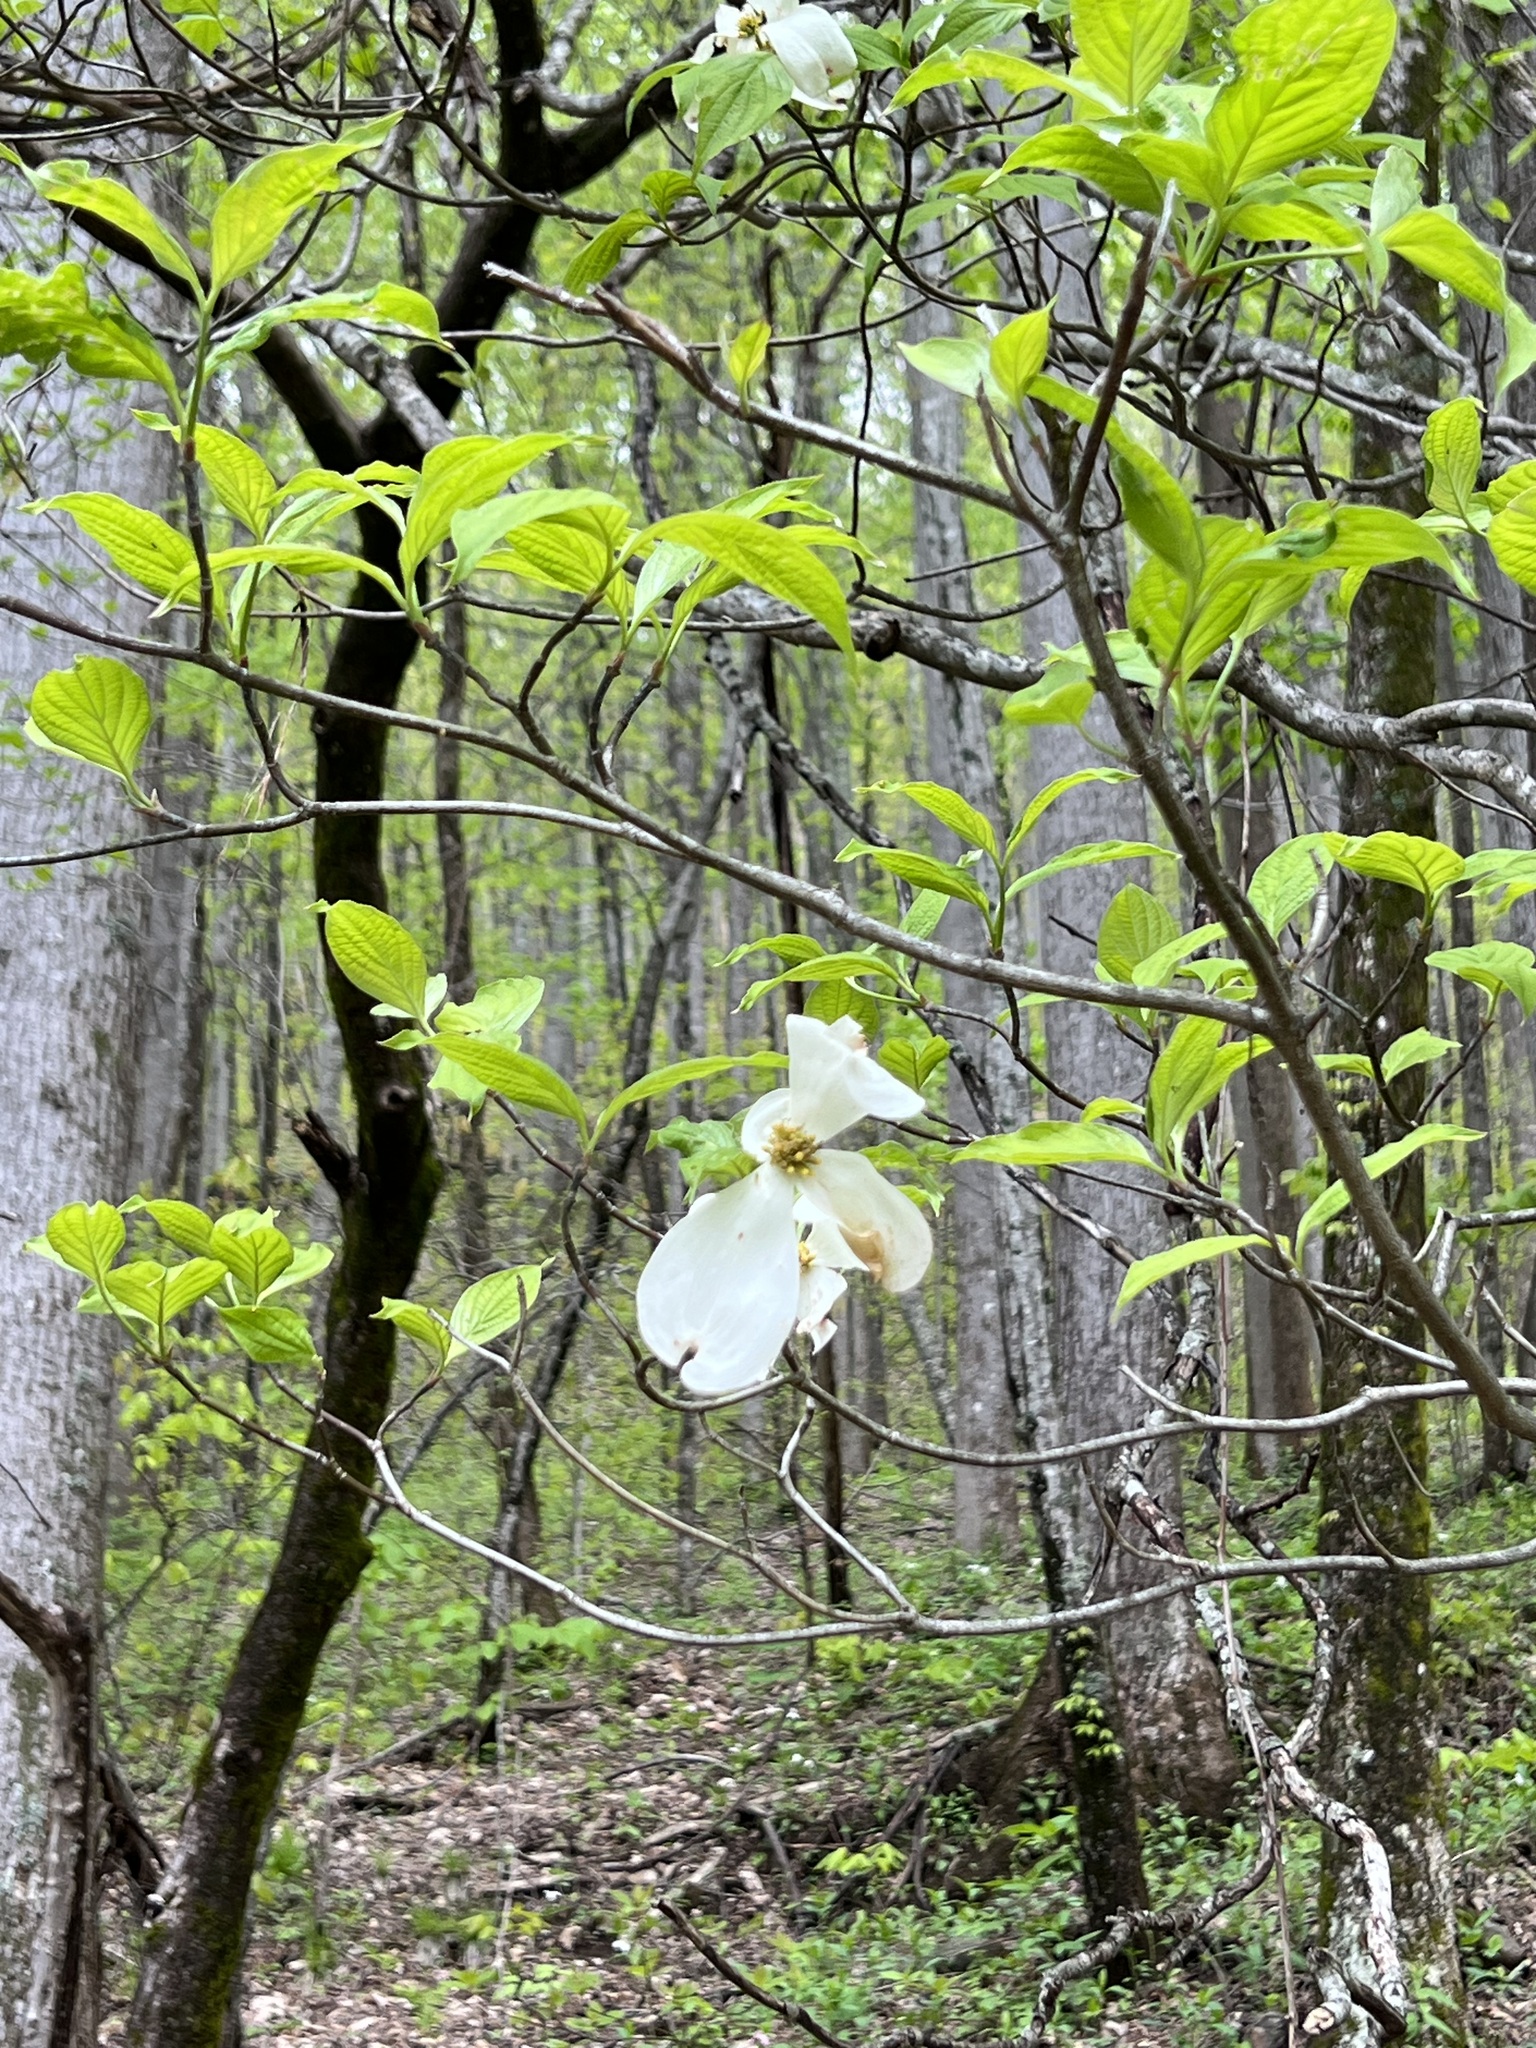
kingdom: Plantae
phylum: Tracheophyta
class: Magnoliopsida
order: Cornales
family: Cornaceae
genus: Cornus
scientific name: Cornus florida
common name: Flowering dogwood
